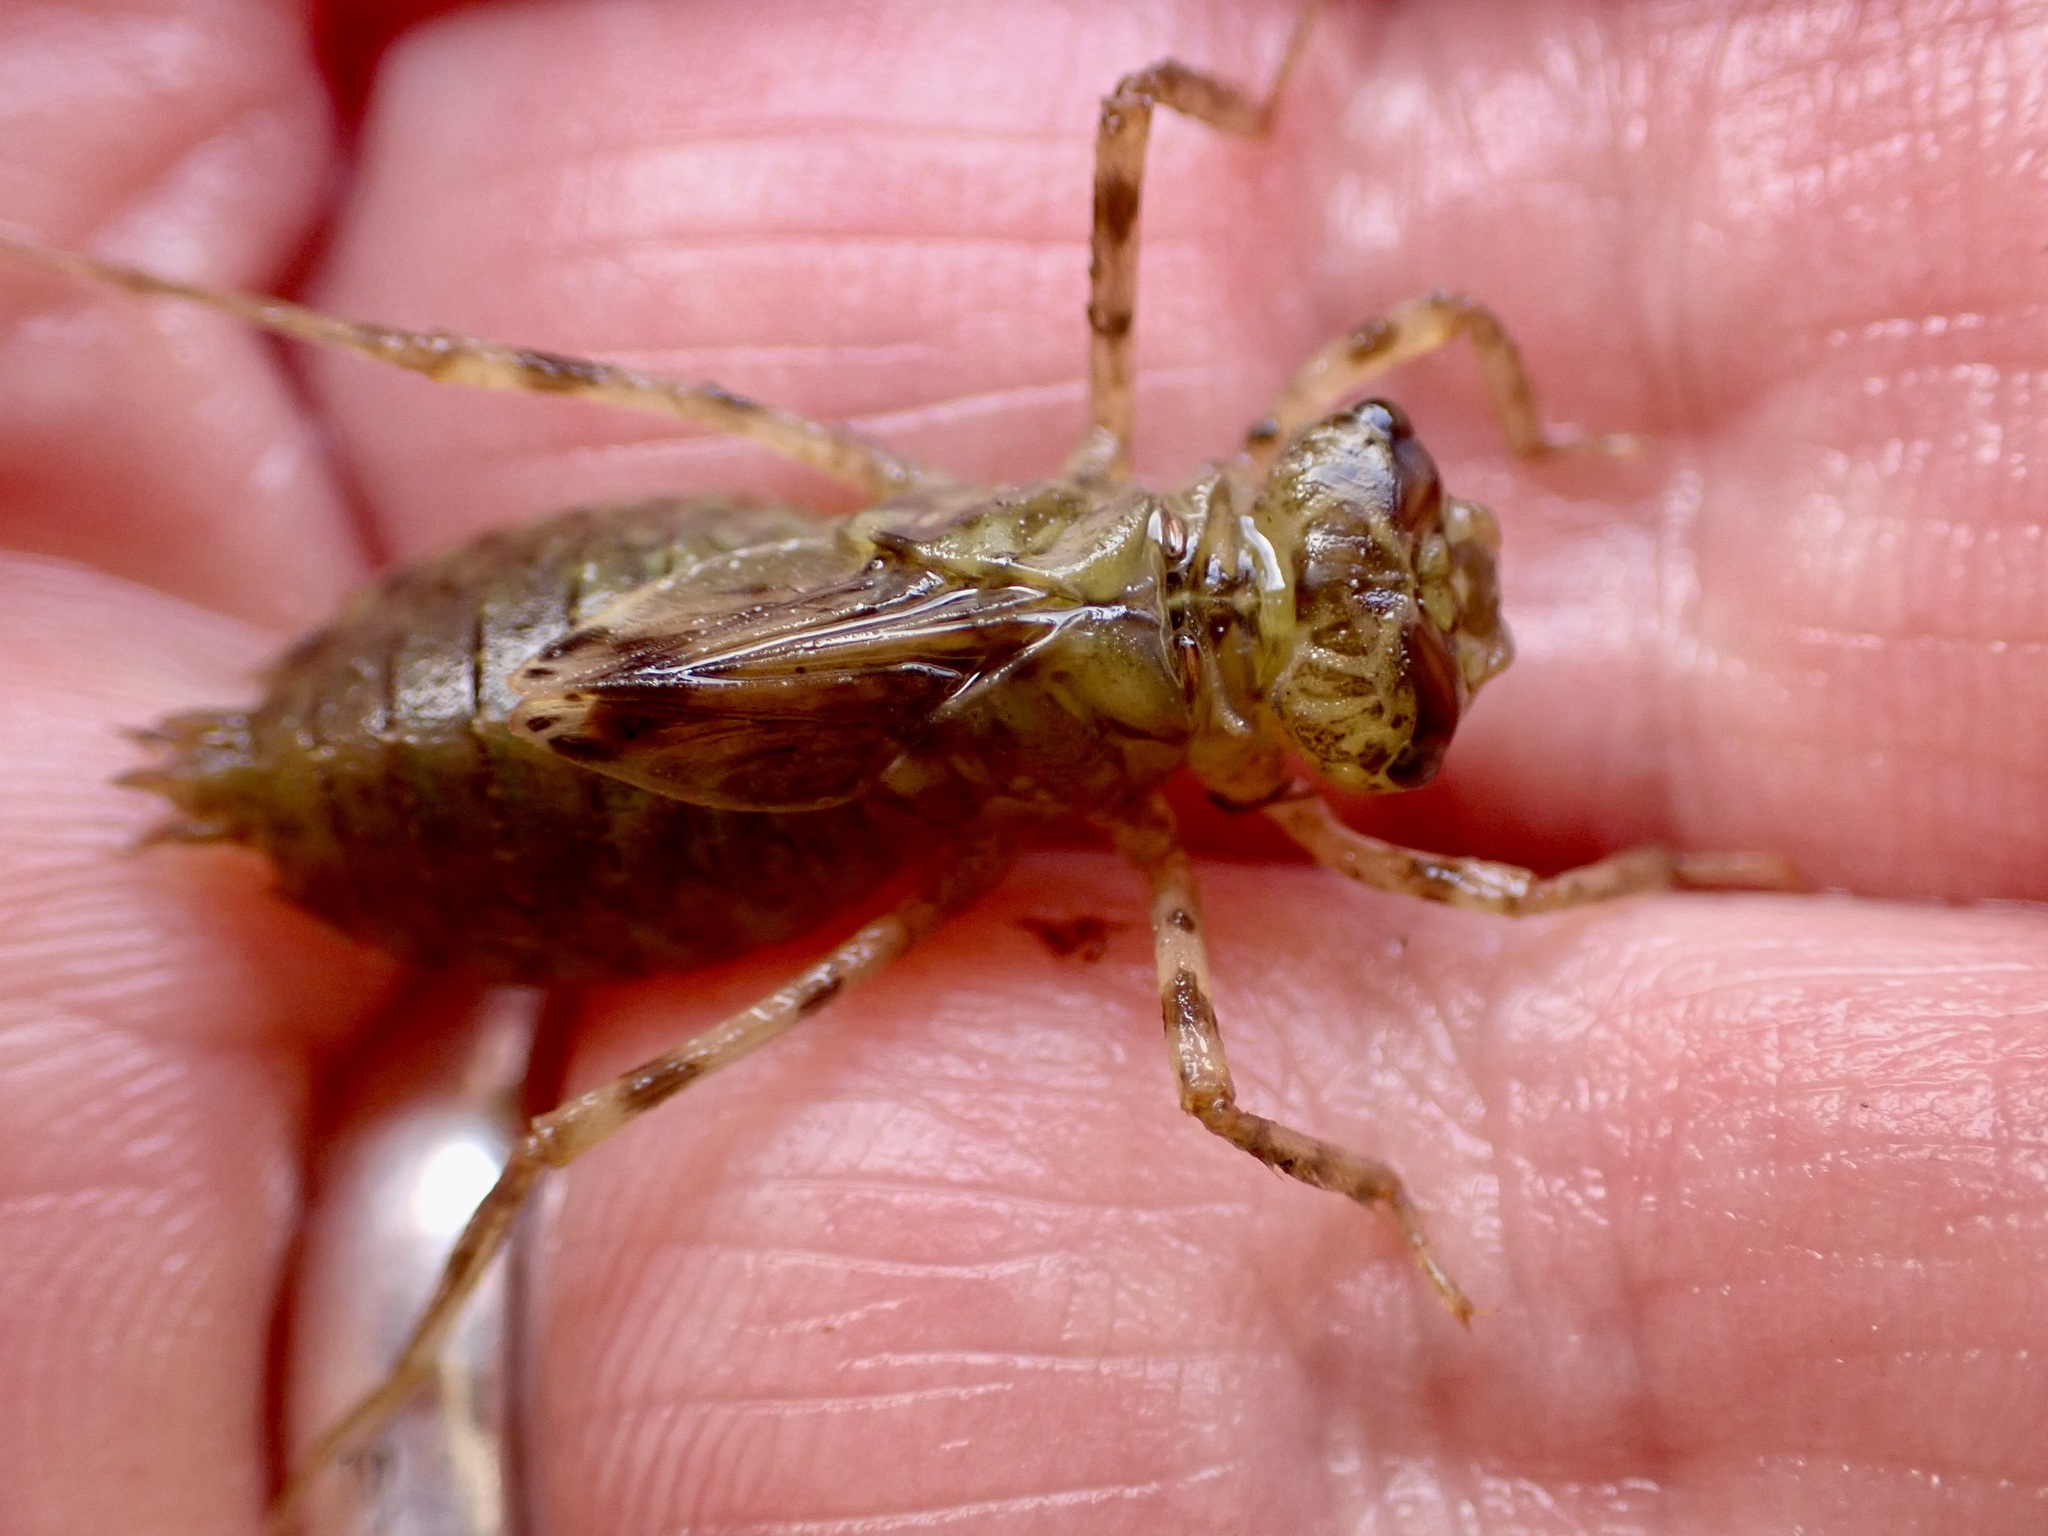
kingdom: Animalia
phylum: Arthropoda
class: Insecta
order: Odonata
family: Corduliidae
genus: Procordulia
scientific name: Procordulia smithii
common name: Ranger dragonfly
